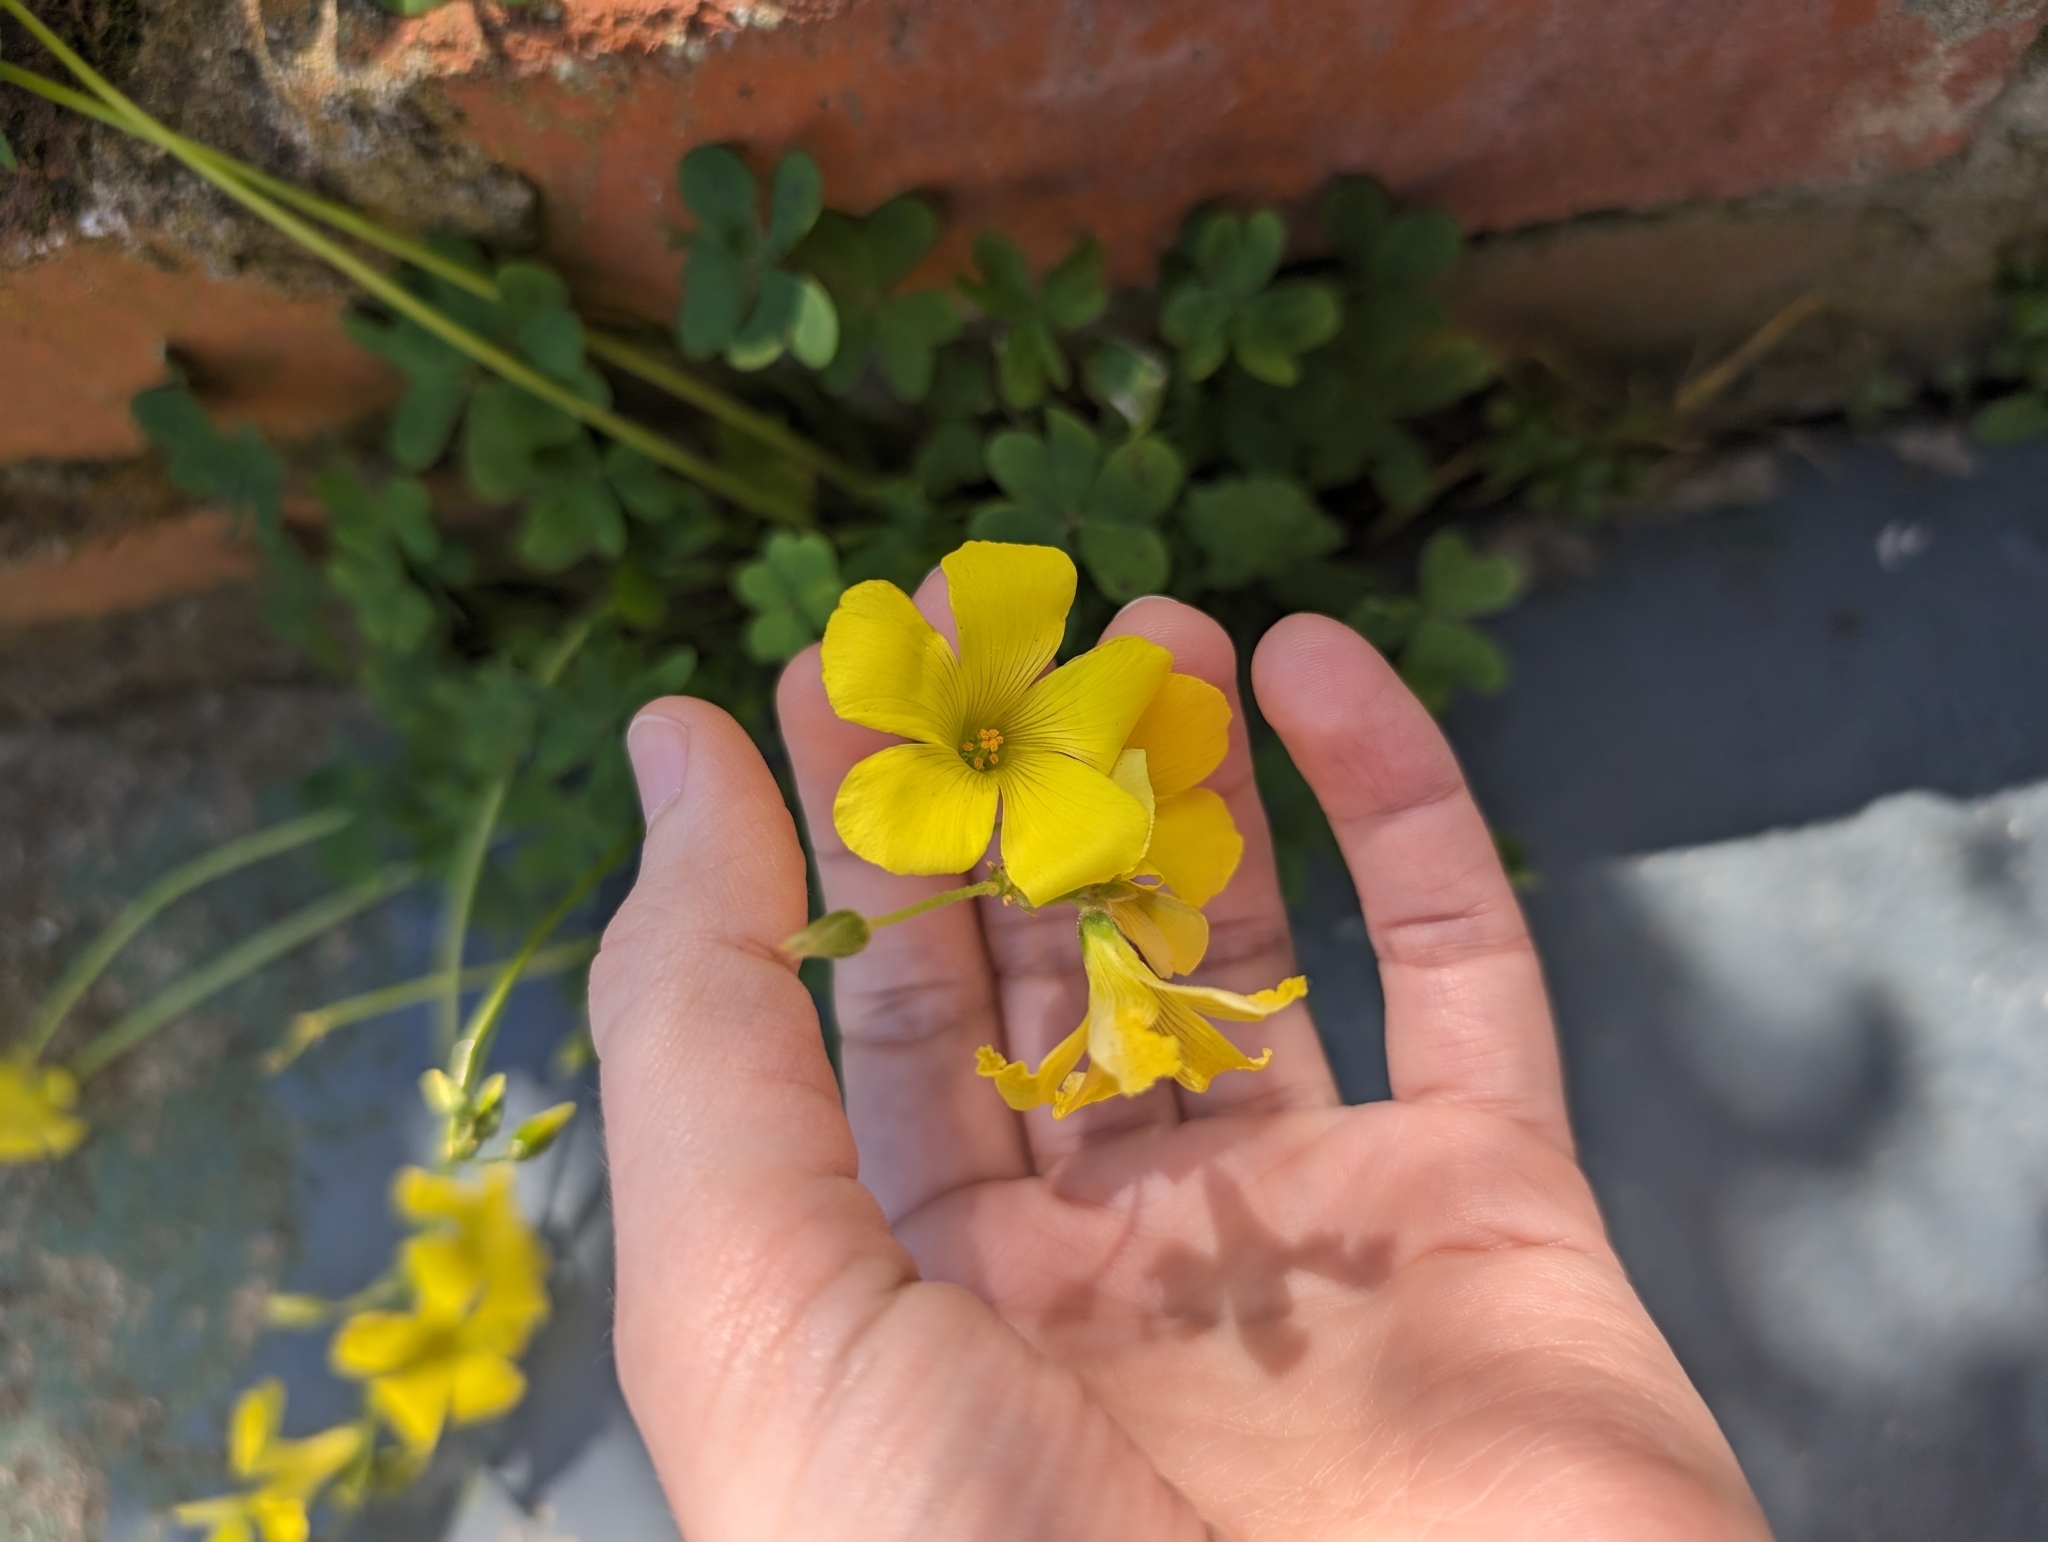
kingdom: Plantae
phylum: Tracheophyta
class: Magnoliopsida
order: Oxalidales
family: Oxalidaceae
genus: Oxalis
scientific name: Oxalis pes-caprae
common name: Bermuda-buttercup
